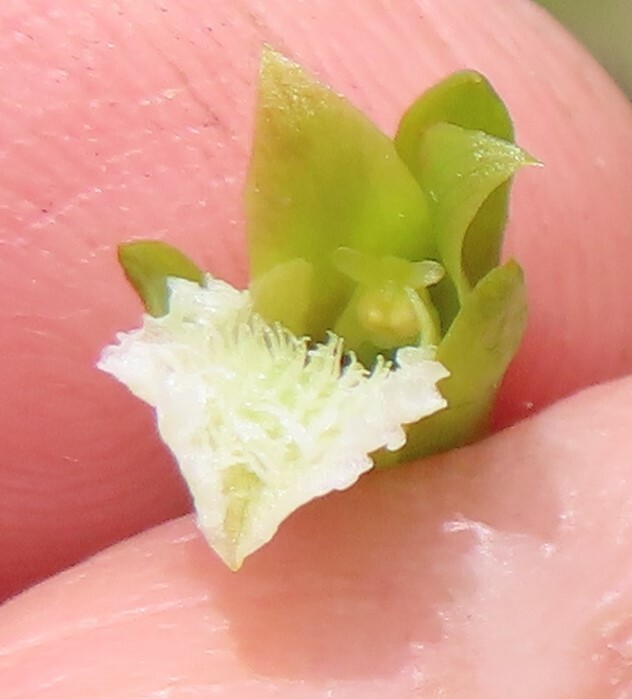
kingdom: Plantae
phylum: Tracheophyta
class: Liliopsida
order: Asparagales
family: Orchidaceae
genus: Eulophia
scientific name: Eulophia tristis
